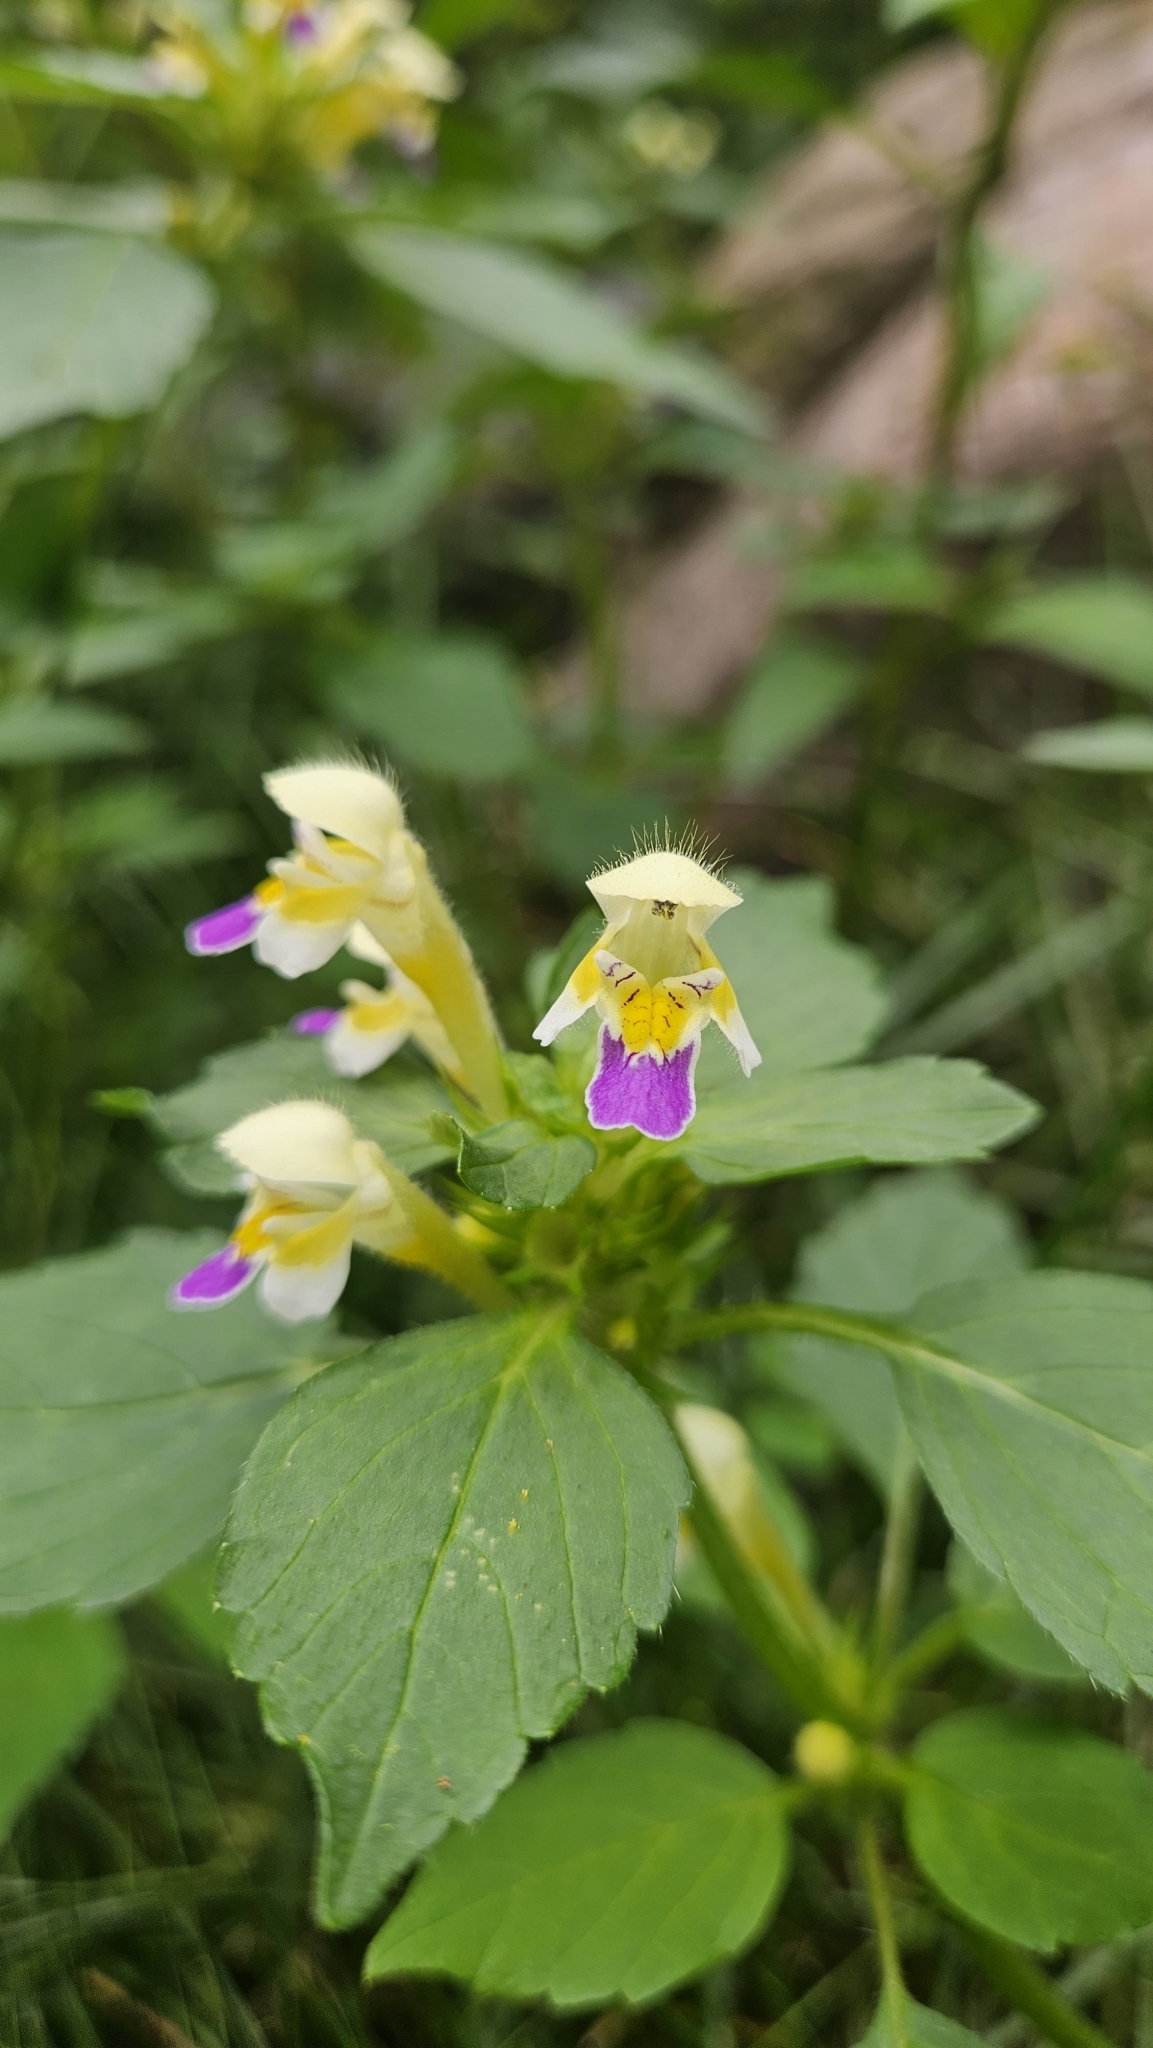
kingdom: Plantae
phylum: Tracheophyta
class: Magnoliopsida
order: Lamiales
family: Lamiaceae
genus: Galeopsis
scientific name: Galeopsis speciosa
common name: Large-flowered hemp-nettle
